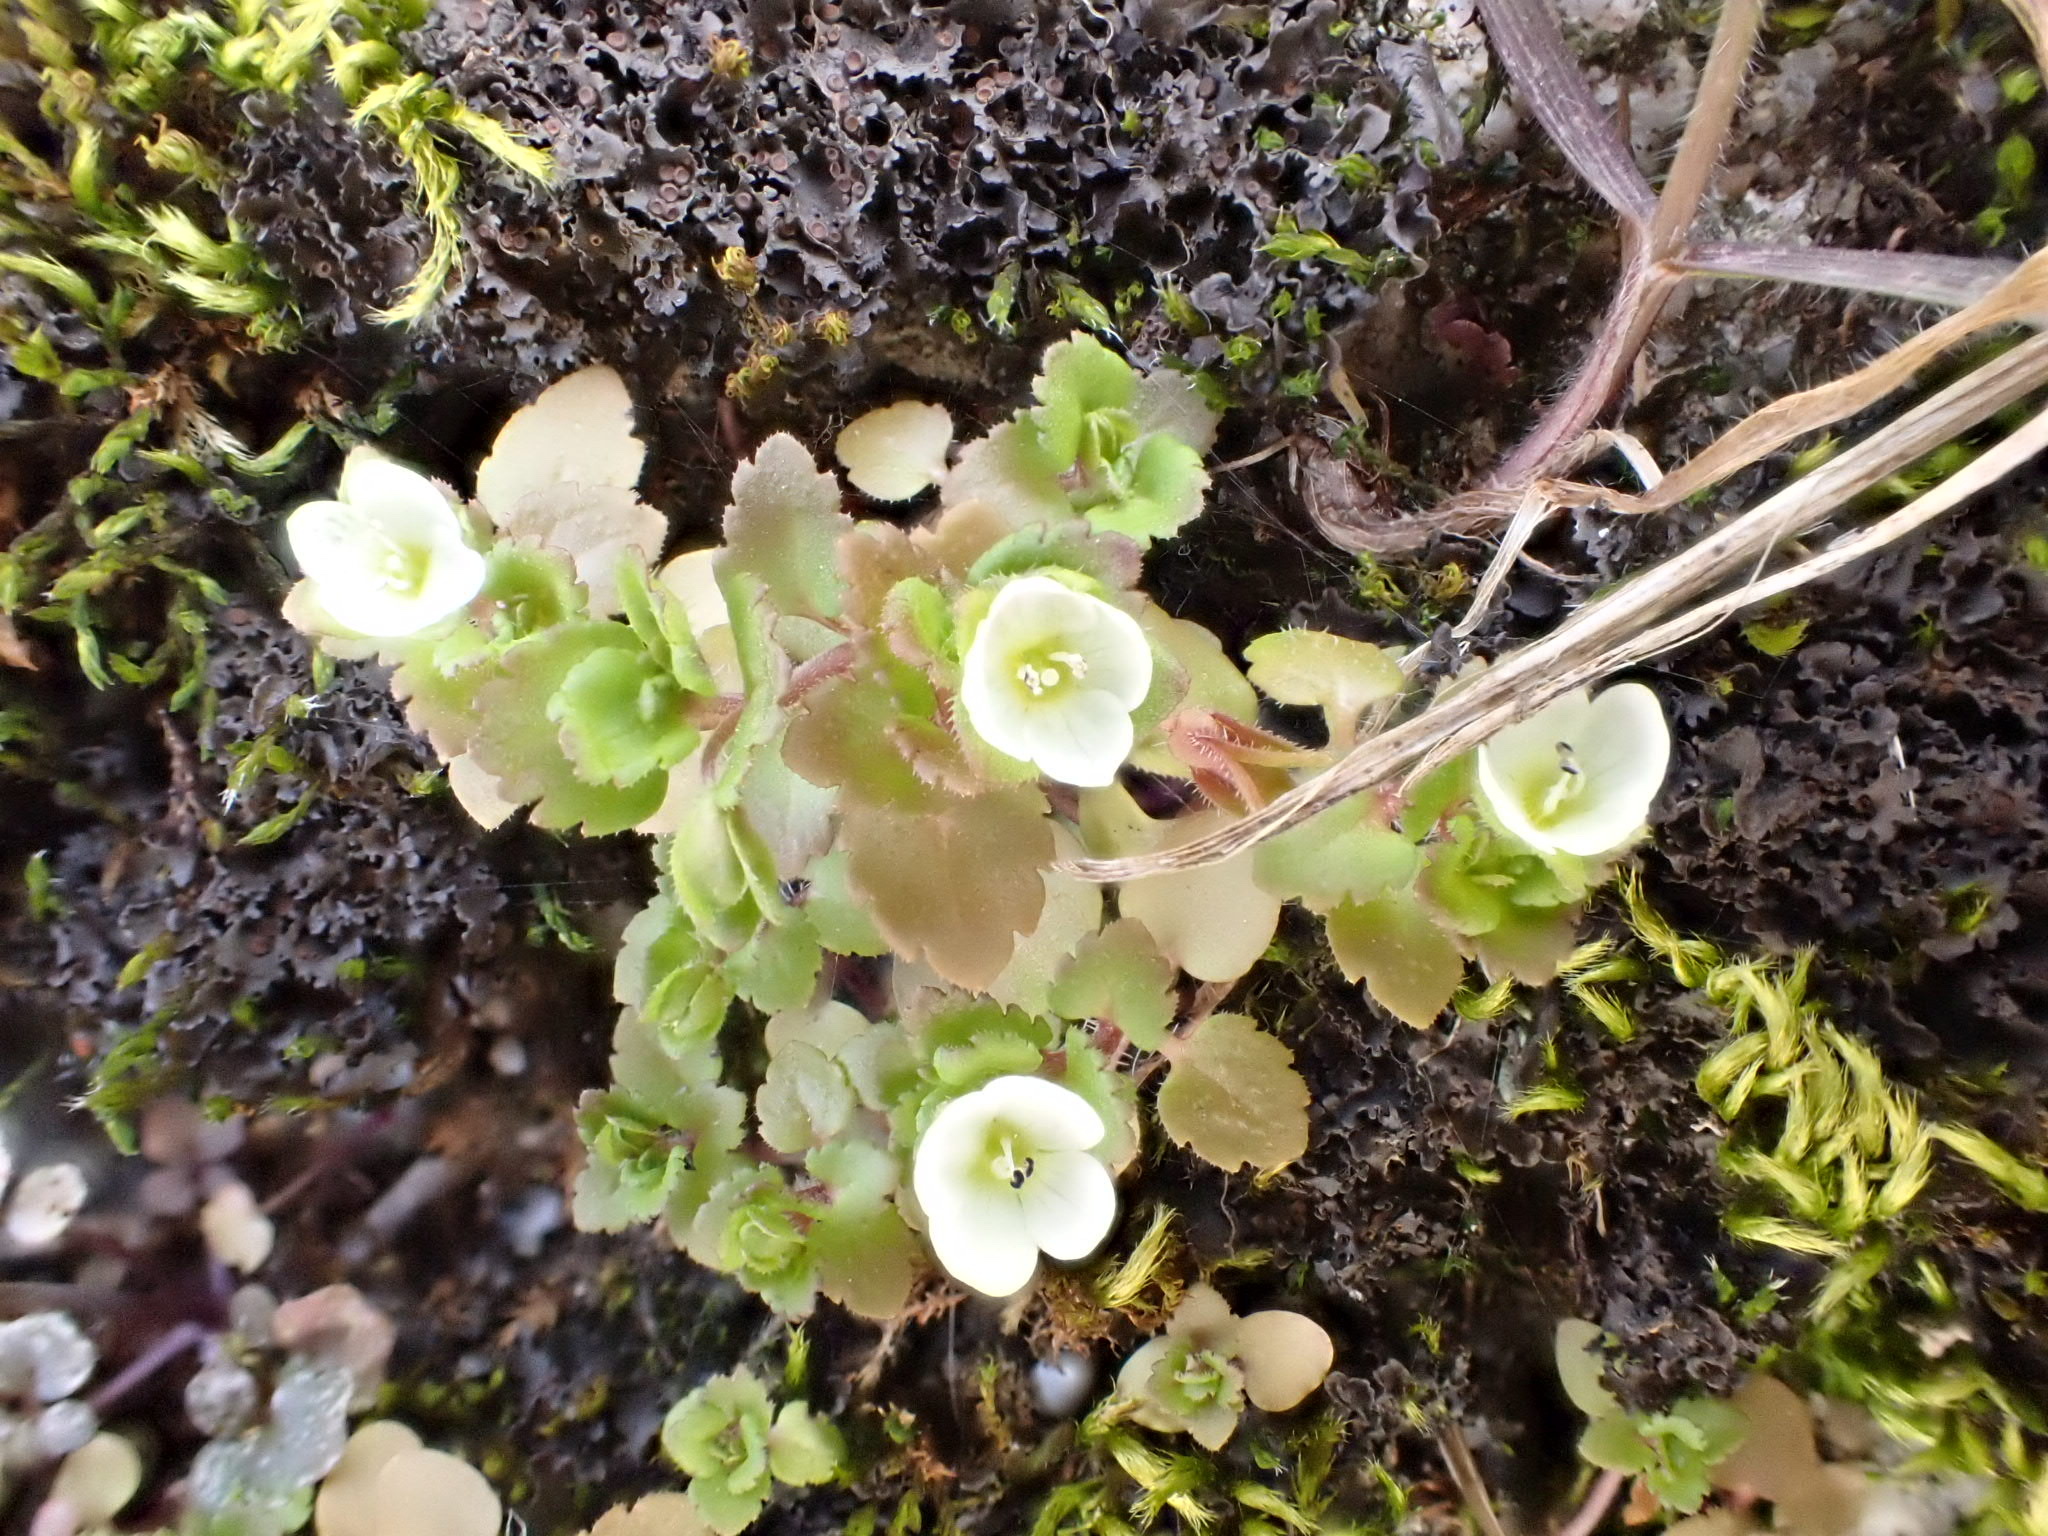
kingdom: Plantae
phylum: Tracheophyta
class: Magnoliopsida
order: Lamiales
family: Plantaginaceae
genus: Veronica
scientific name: Veronica cymbalaria
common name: Pale speedwell
